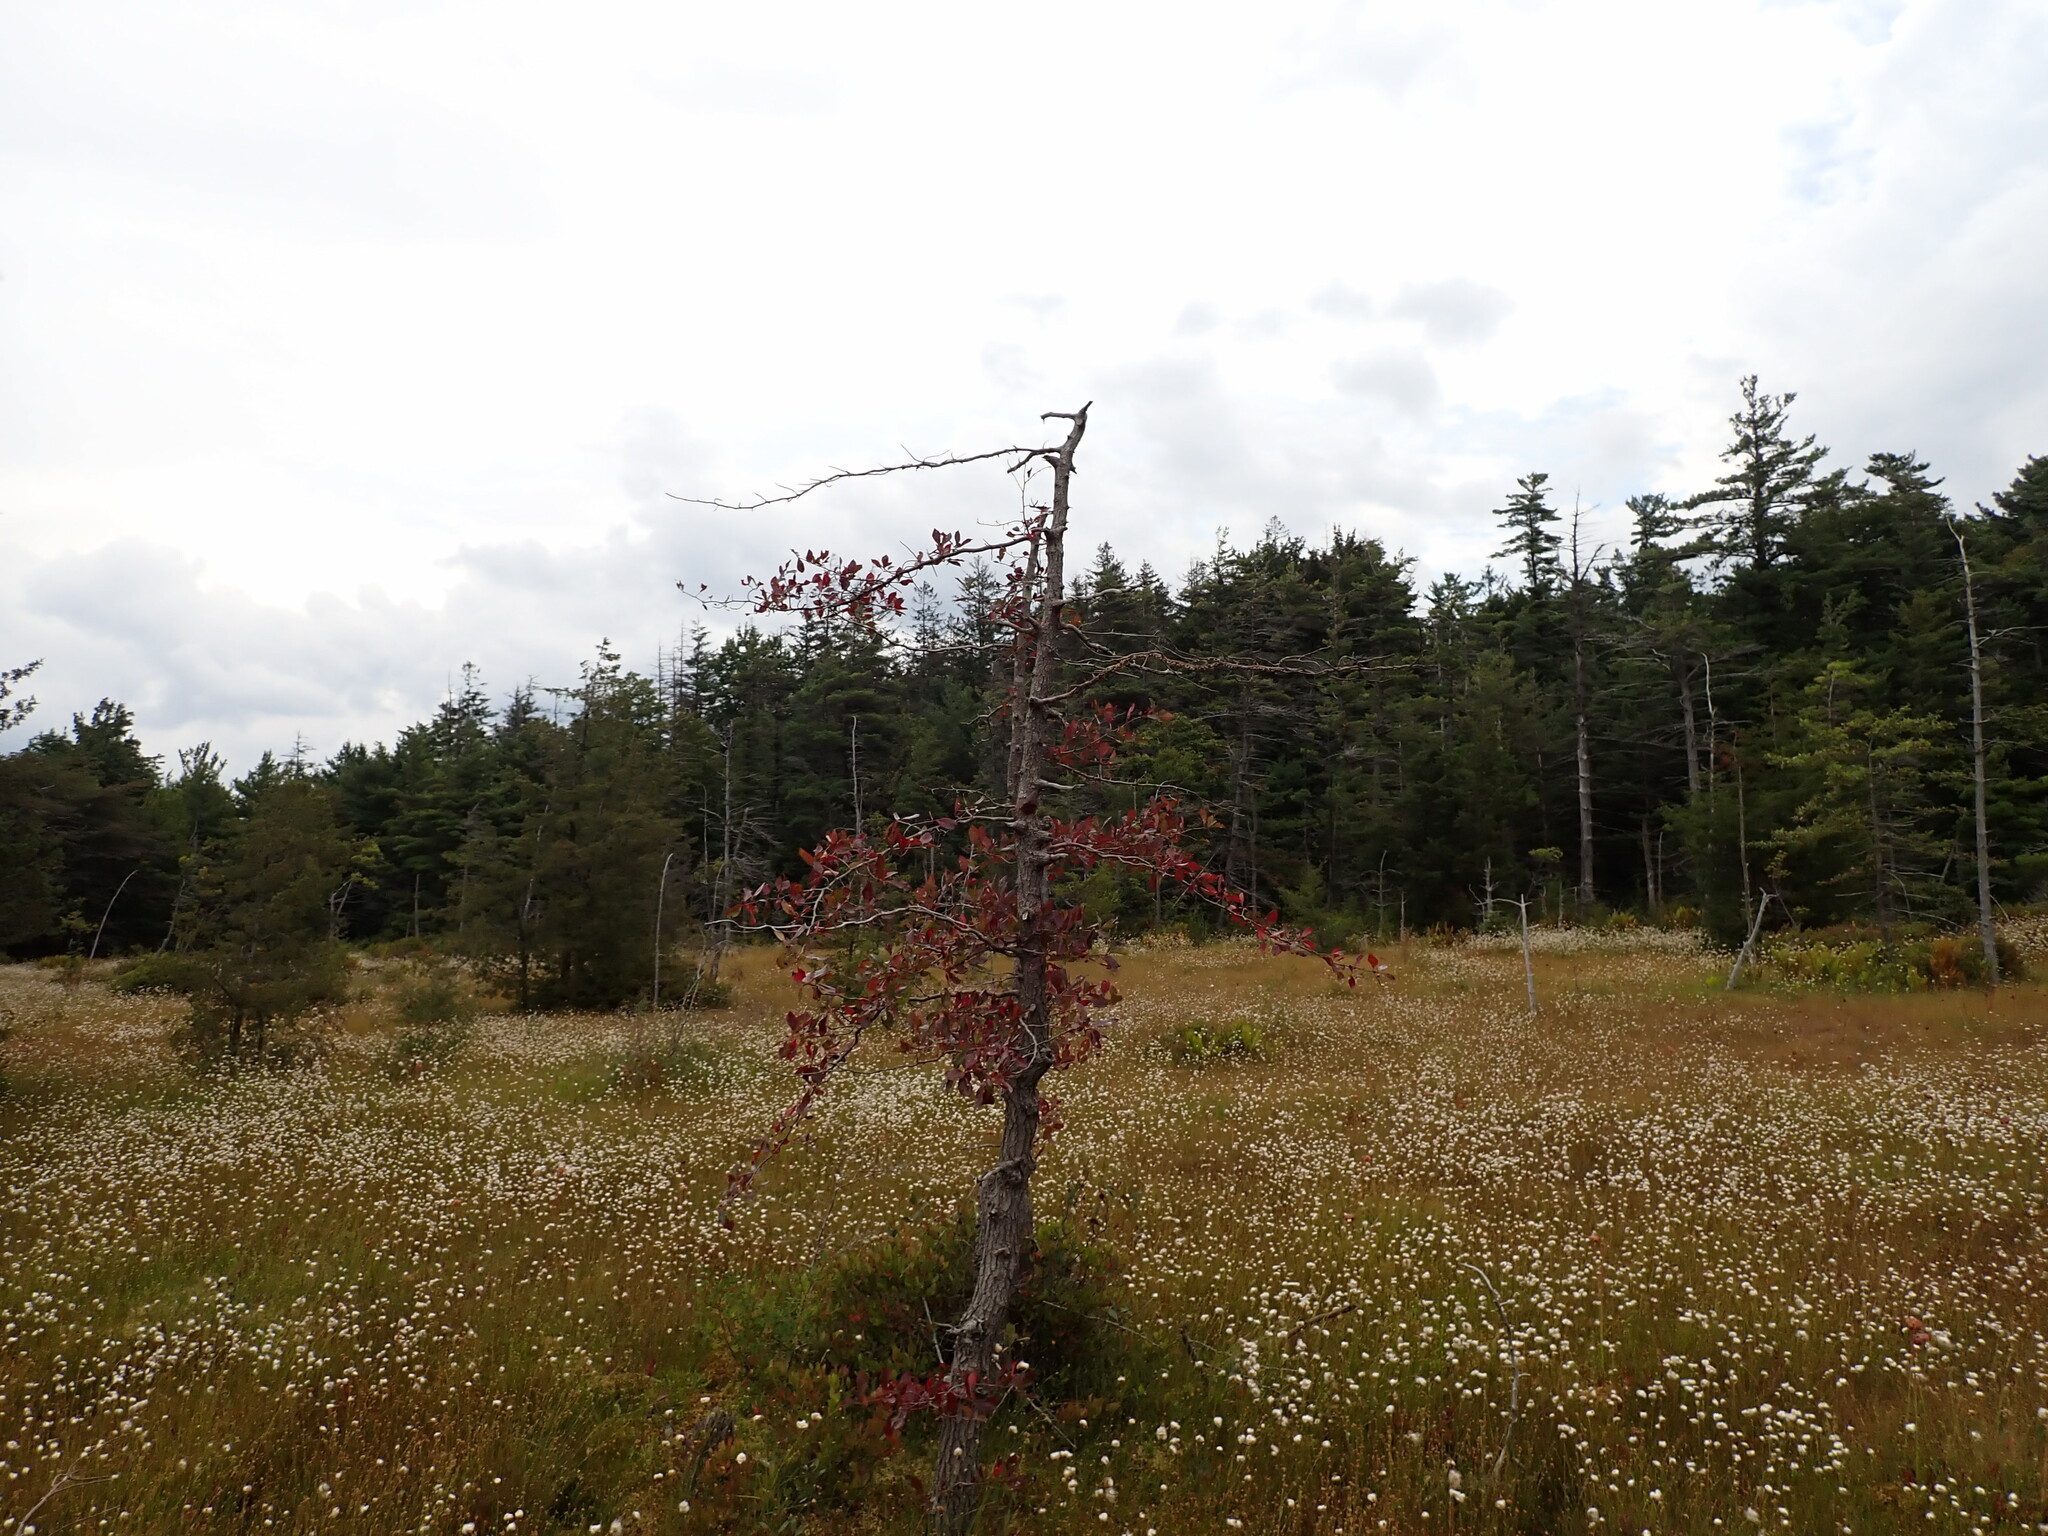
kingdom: Plantae
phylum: Tracheophyta
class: Magnoliopsida
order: Cornales
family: Nyssaceae
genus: Nyssa
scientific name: Nyssa sylvatica
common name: Black tupelo
